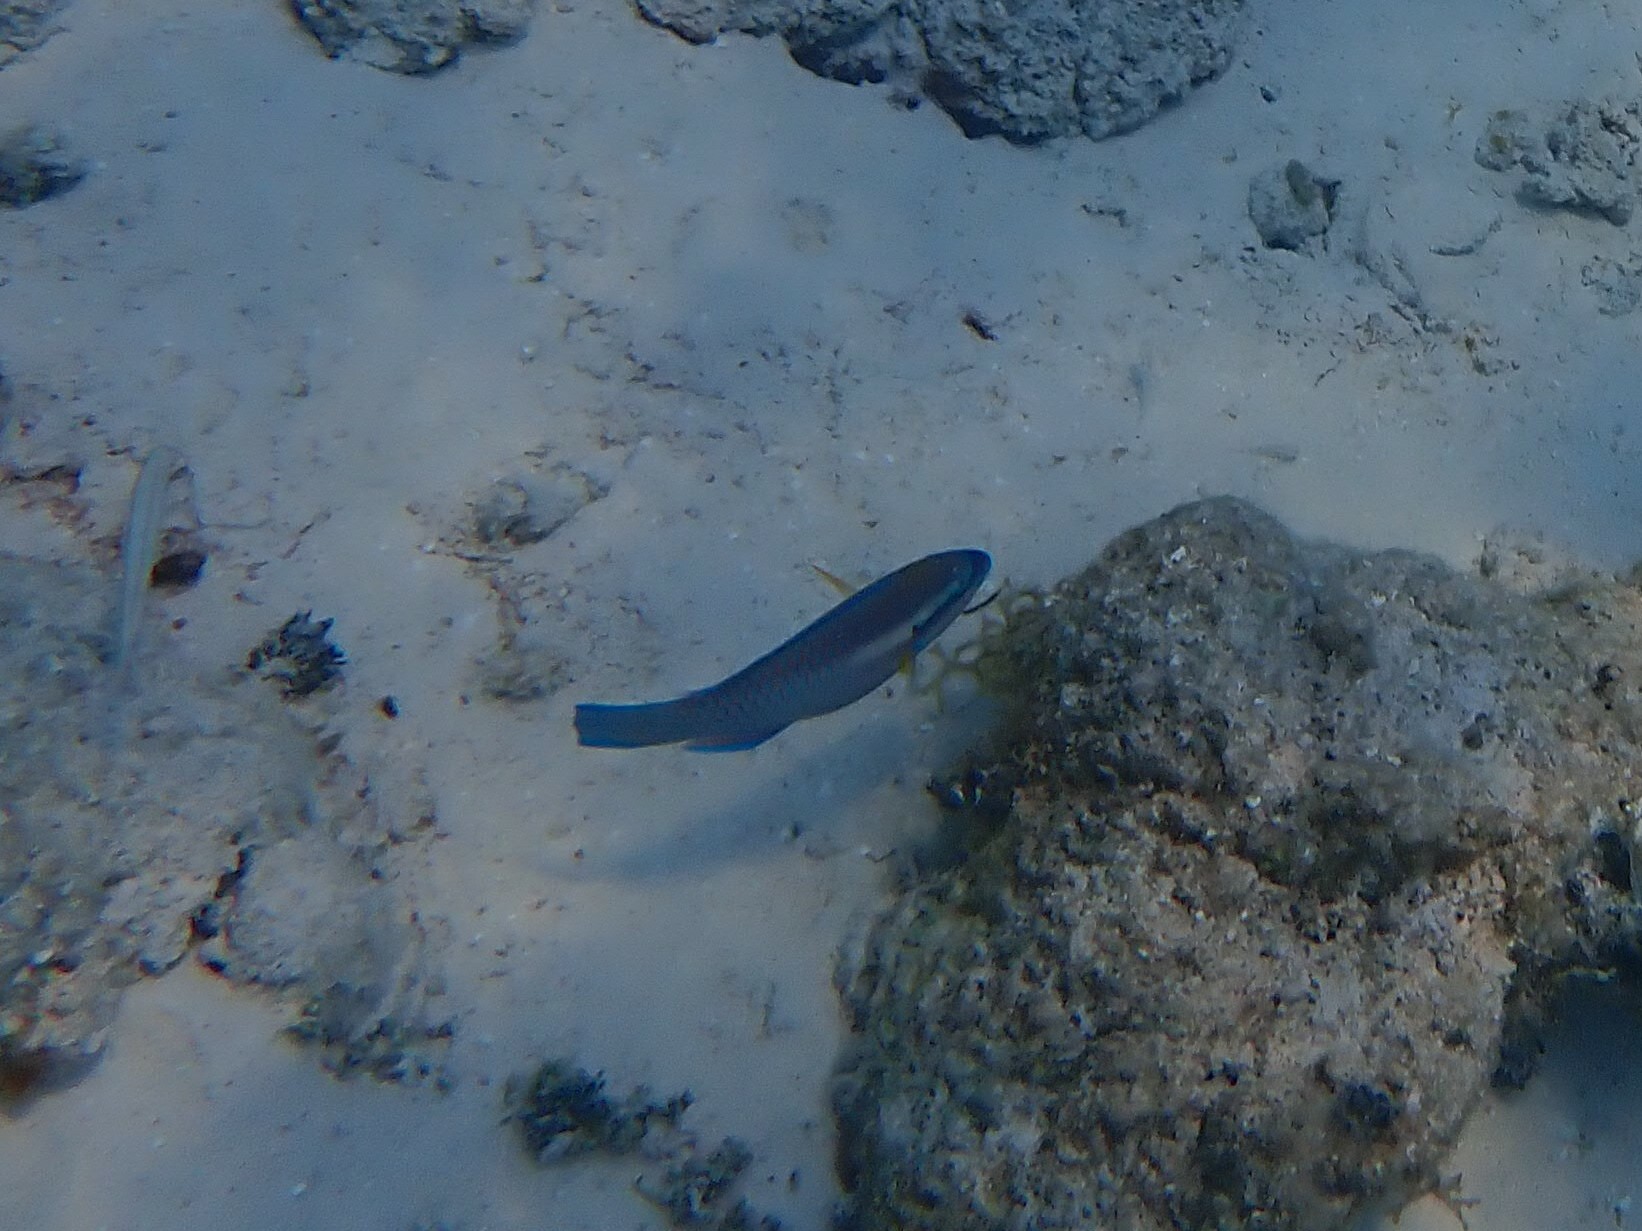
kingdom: Animalia
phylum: Chordata
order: Perciformes
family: Scaridae
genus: Scarus
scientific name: Scarus iseri
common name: Striped parrotfish
